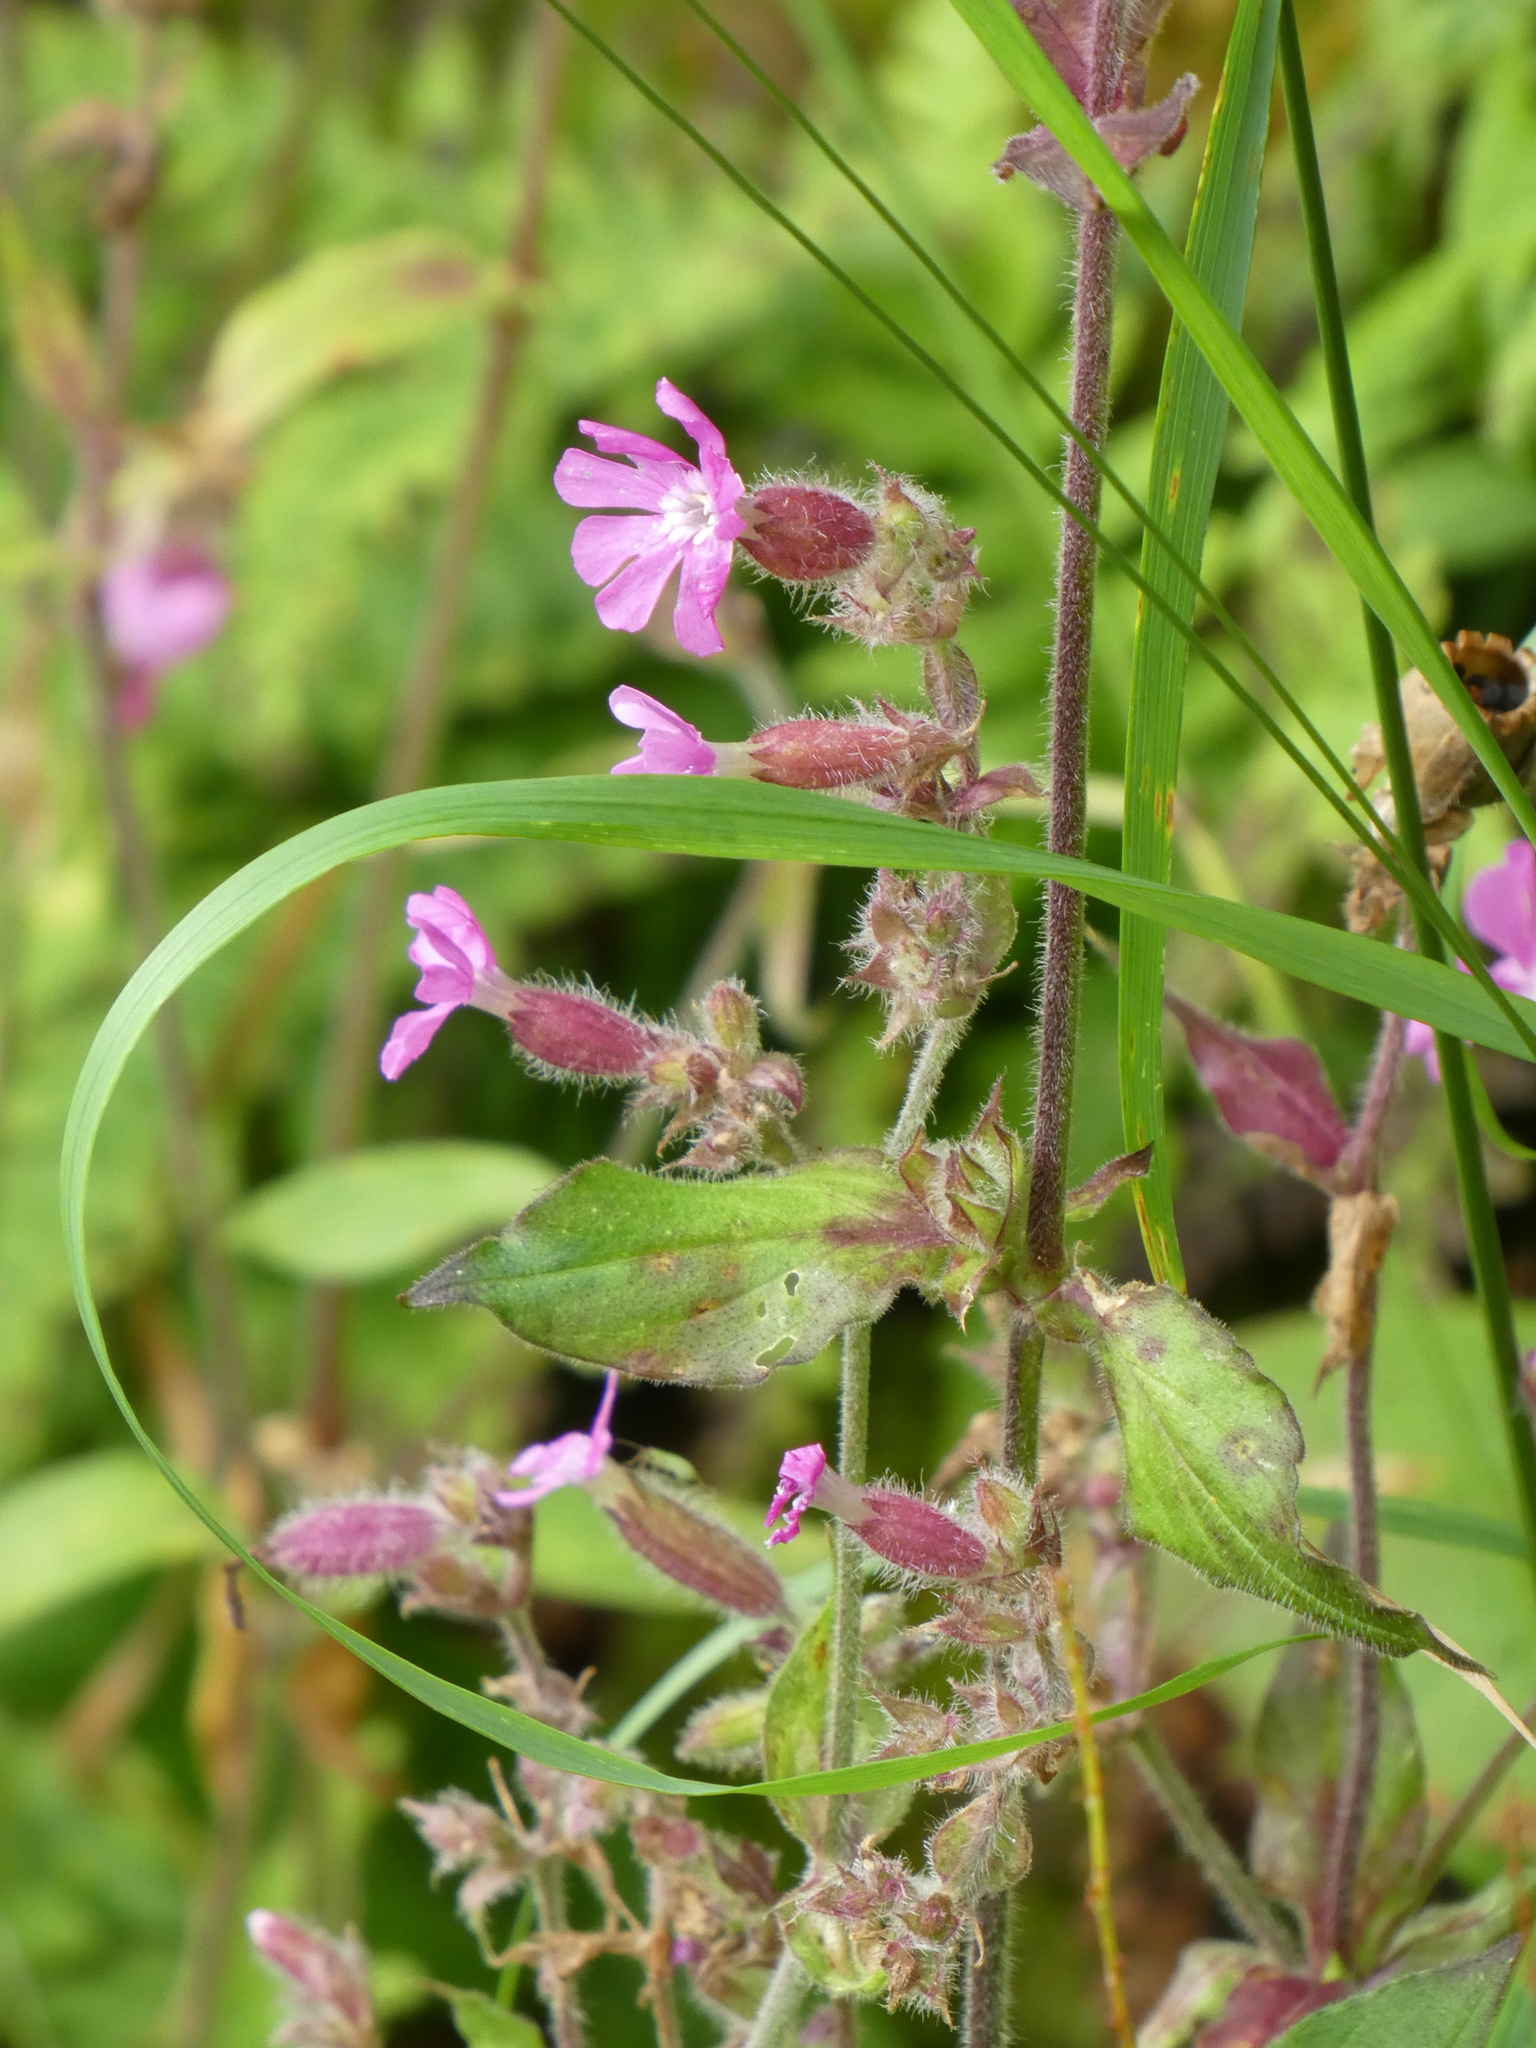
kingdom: Plantae
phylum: Tracheophyta
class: Magnoliopsida
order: Caryophyllales
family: Caryophyllaceae
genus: Silene
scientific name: Silene dioica
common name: Red campion
